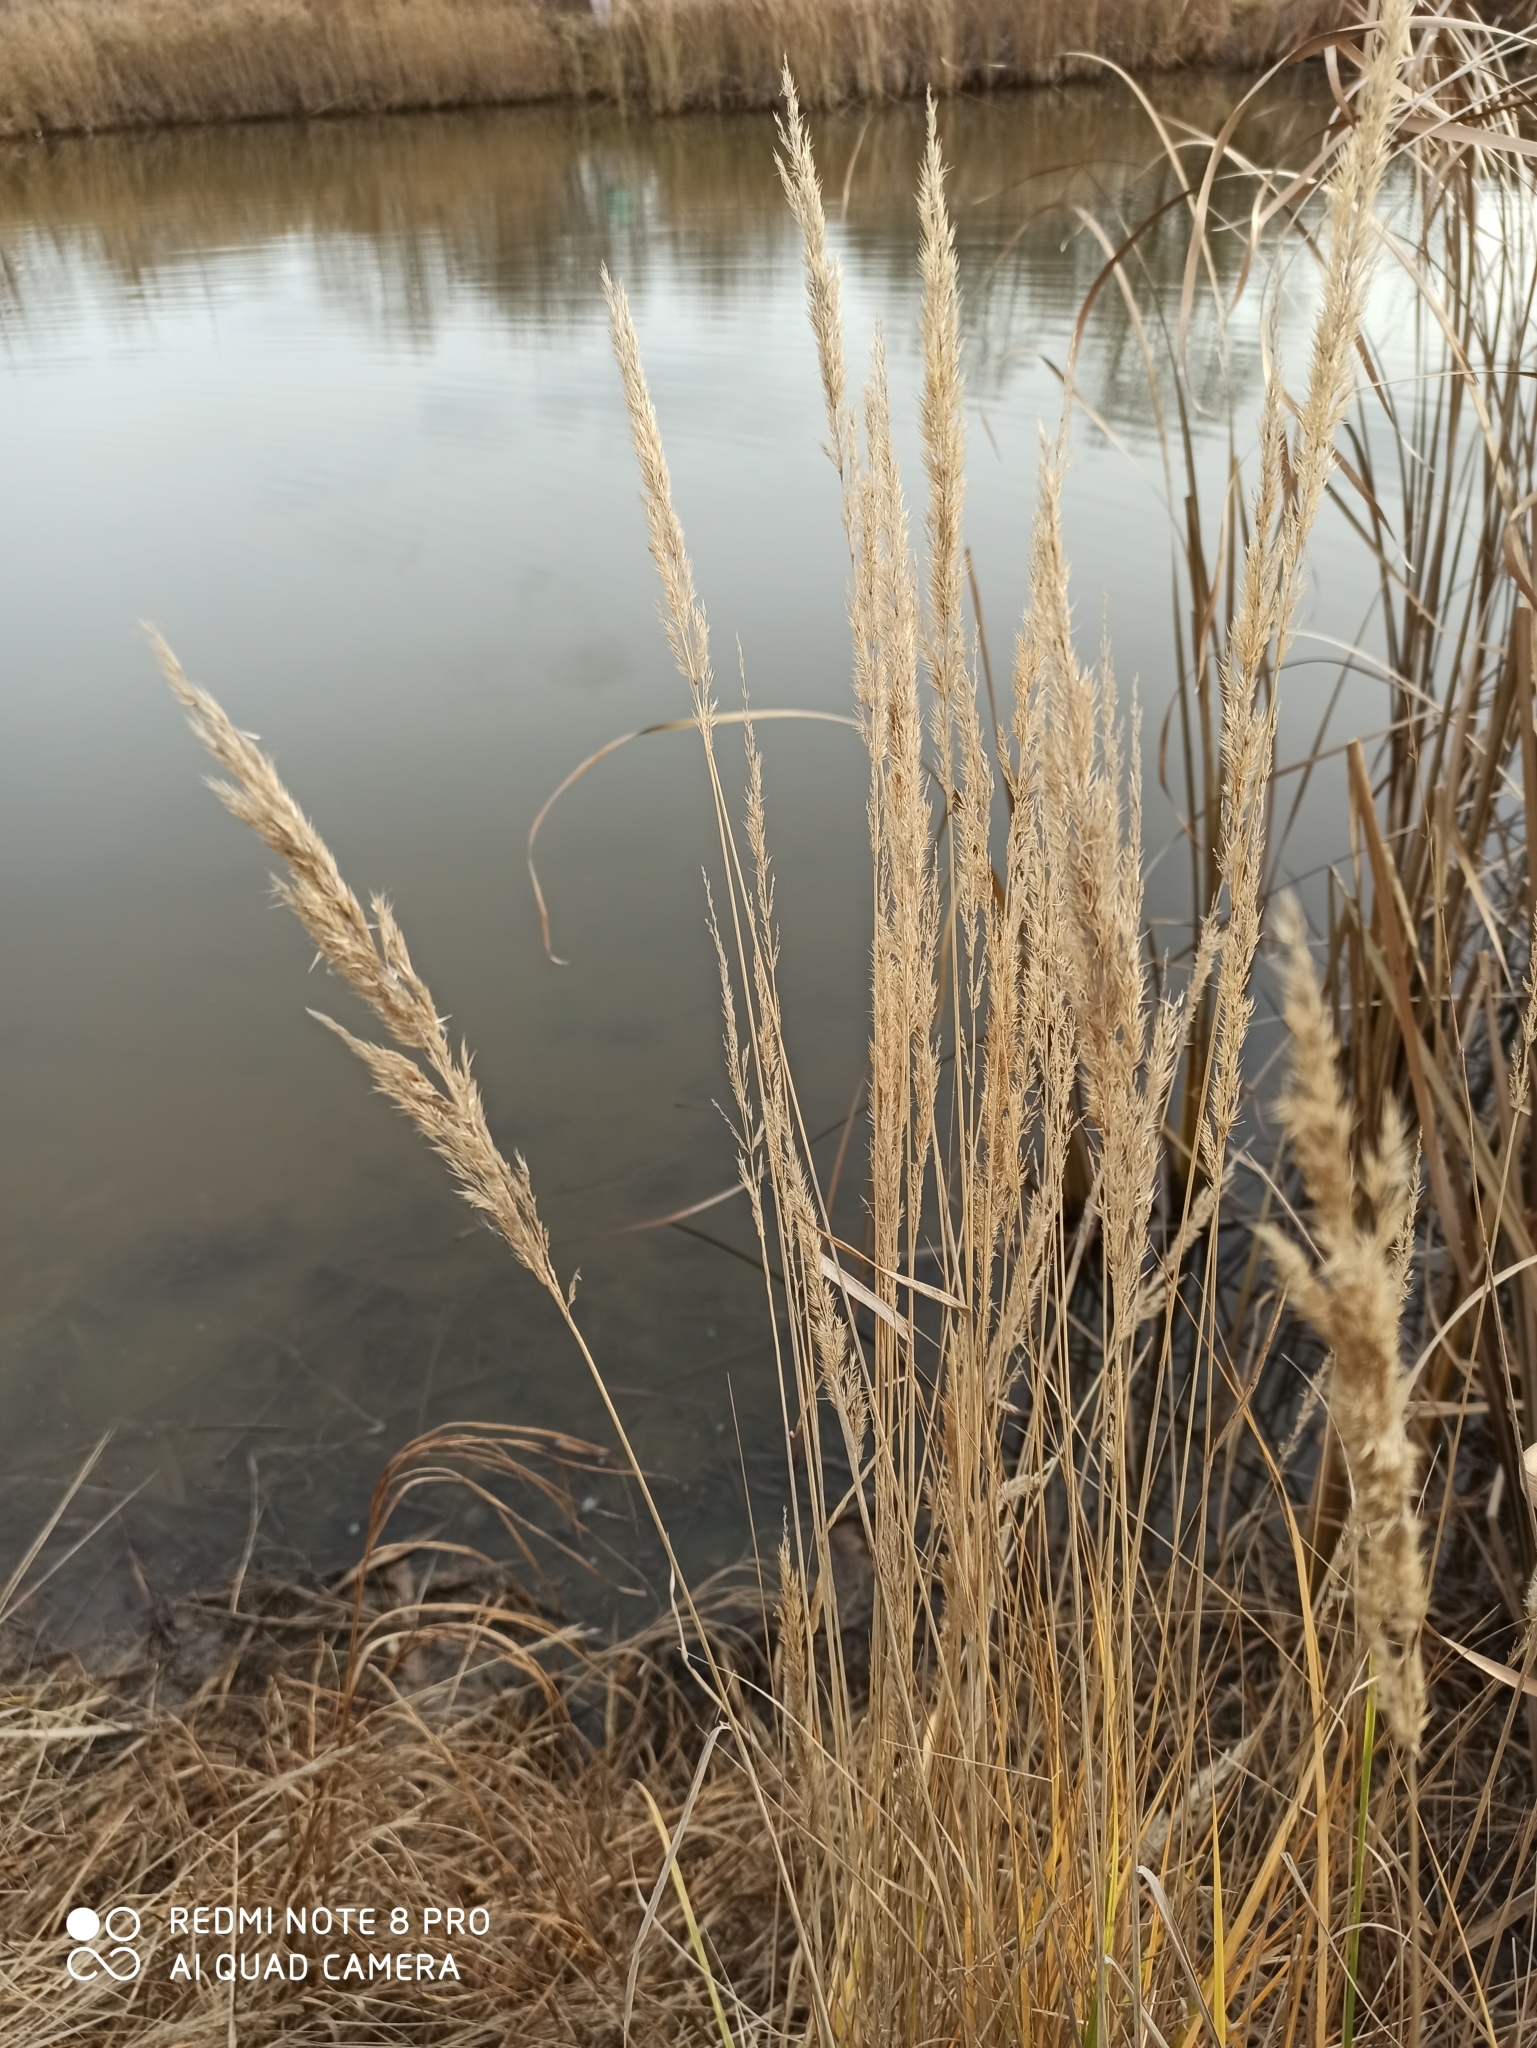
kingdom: Plantae
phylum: Tracheophyta
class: Liliopsida
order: Poales
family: Poaceae
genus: Calamagrostis
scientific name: Calamagrostis epigejos
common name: Wood small-reed
